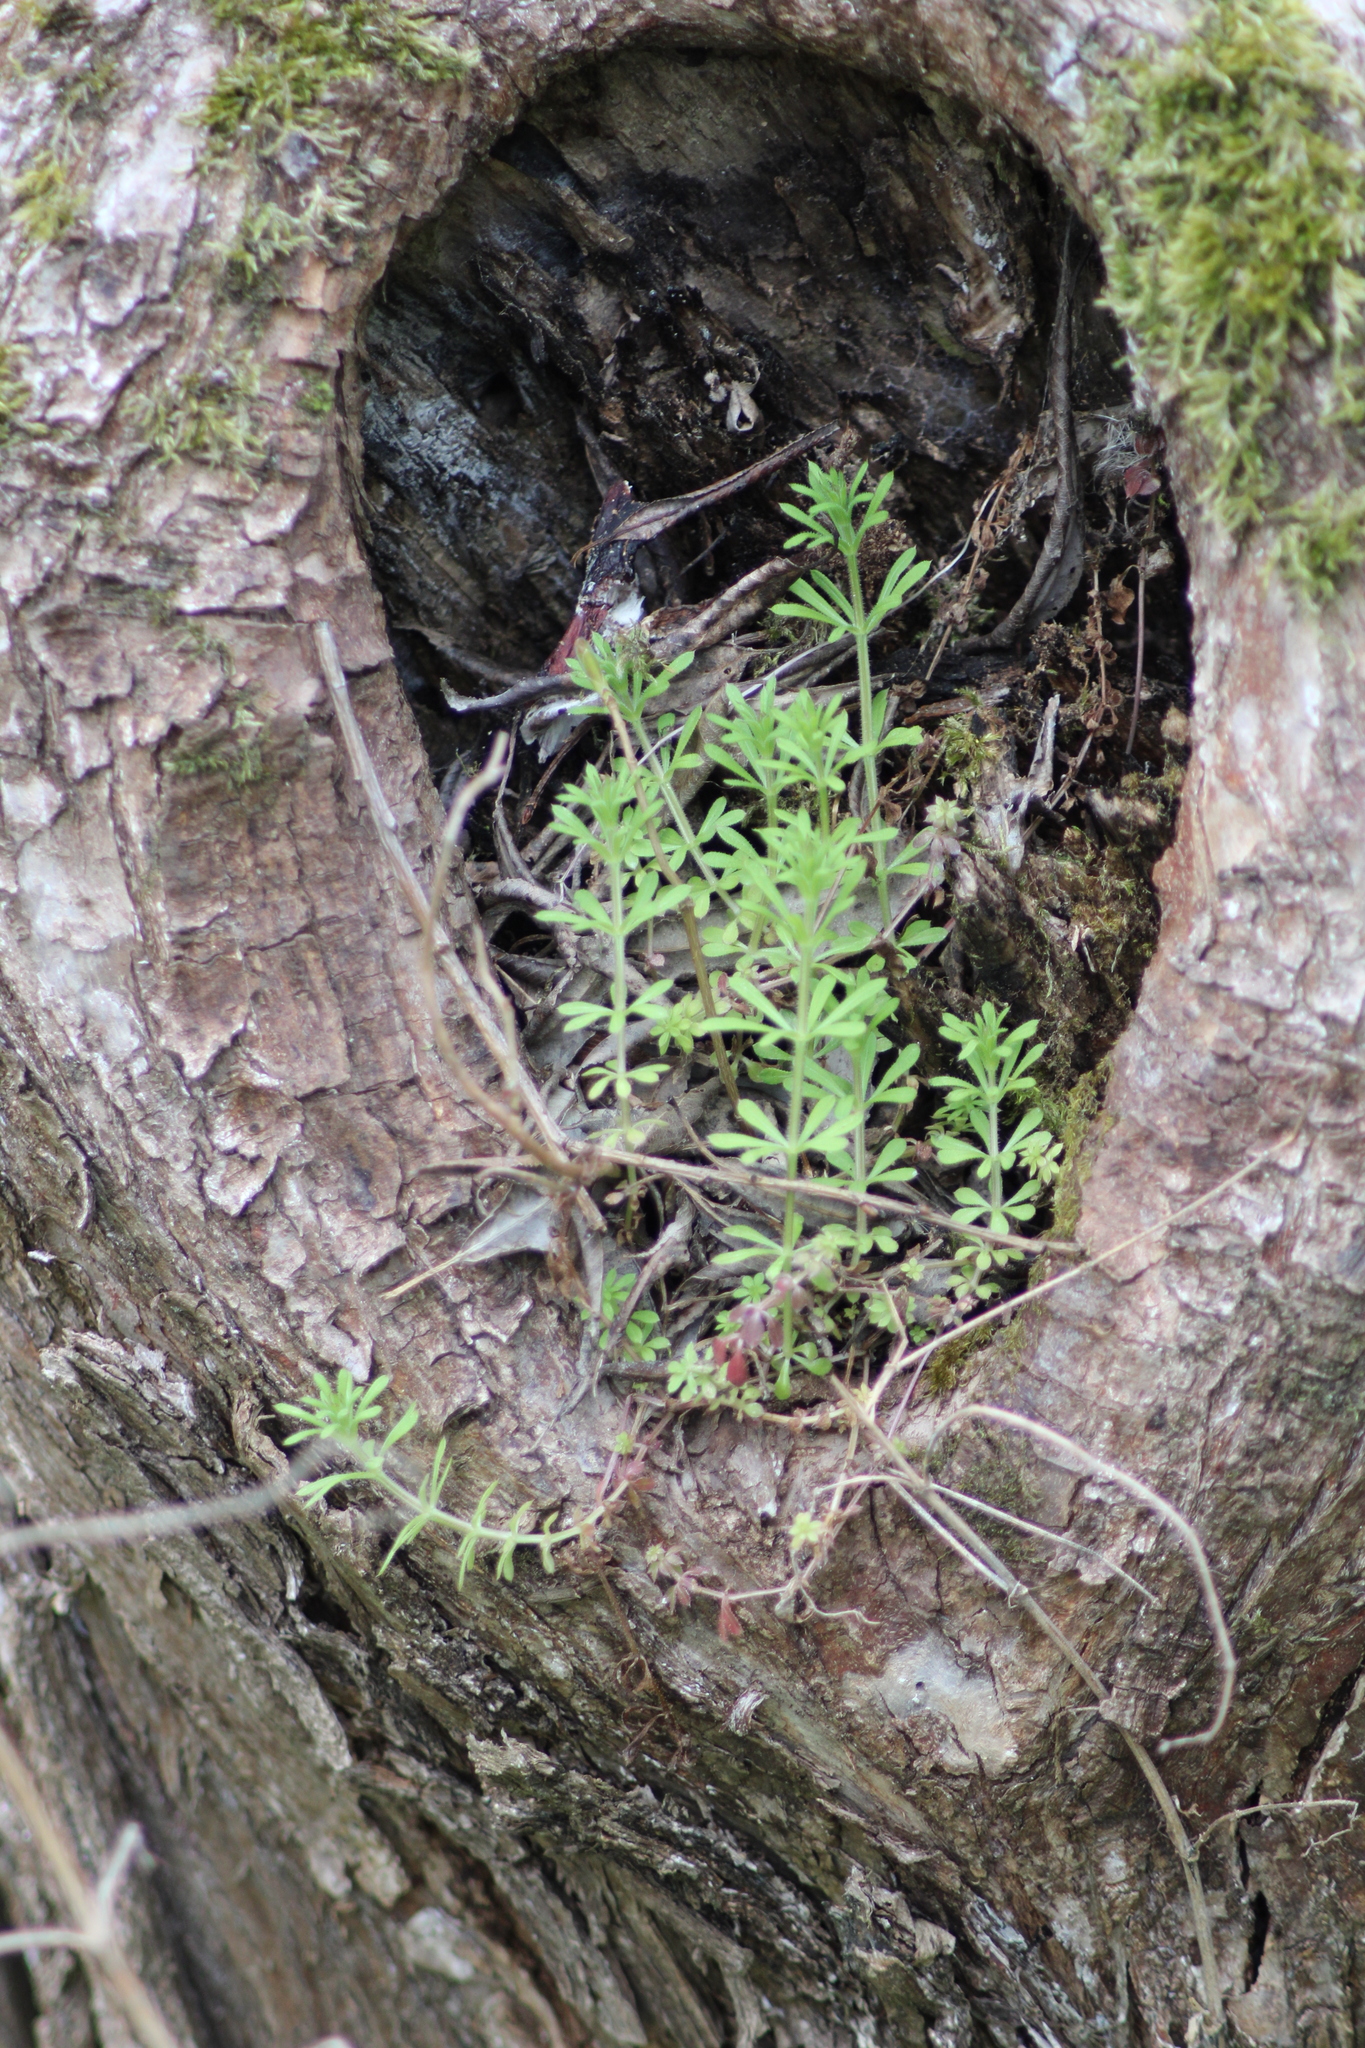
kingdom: Plantae
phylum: Tracheophyta
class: Magnoliopsida
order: Gentianales
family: Rubiaceae
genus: Galium
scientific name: Galium aparine
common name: Cleavers
